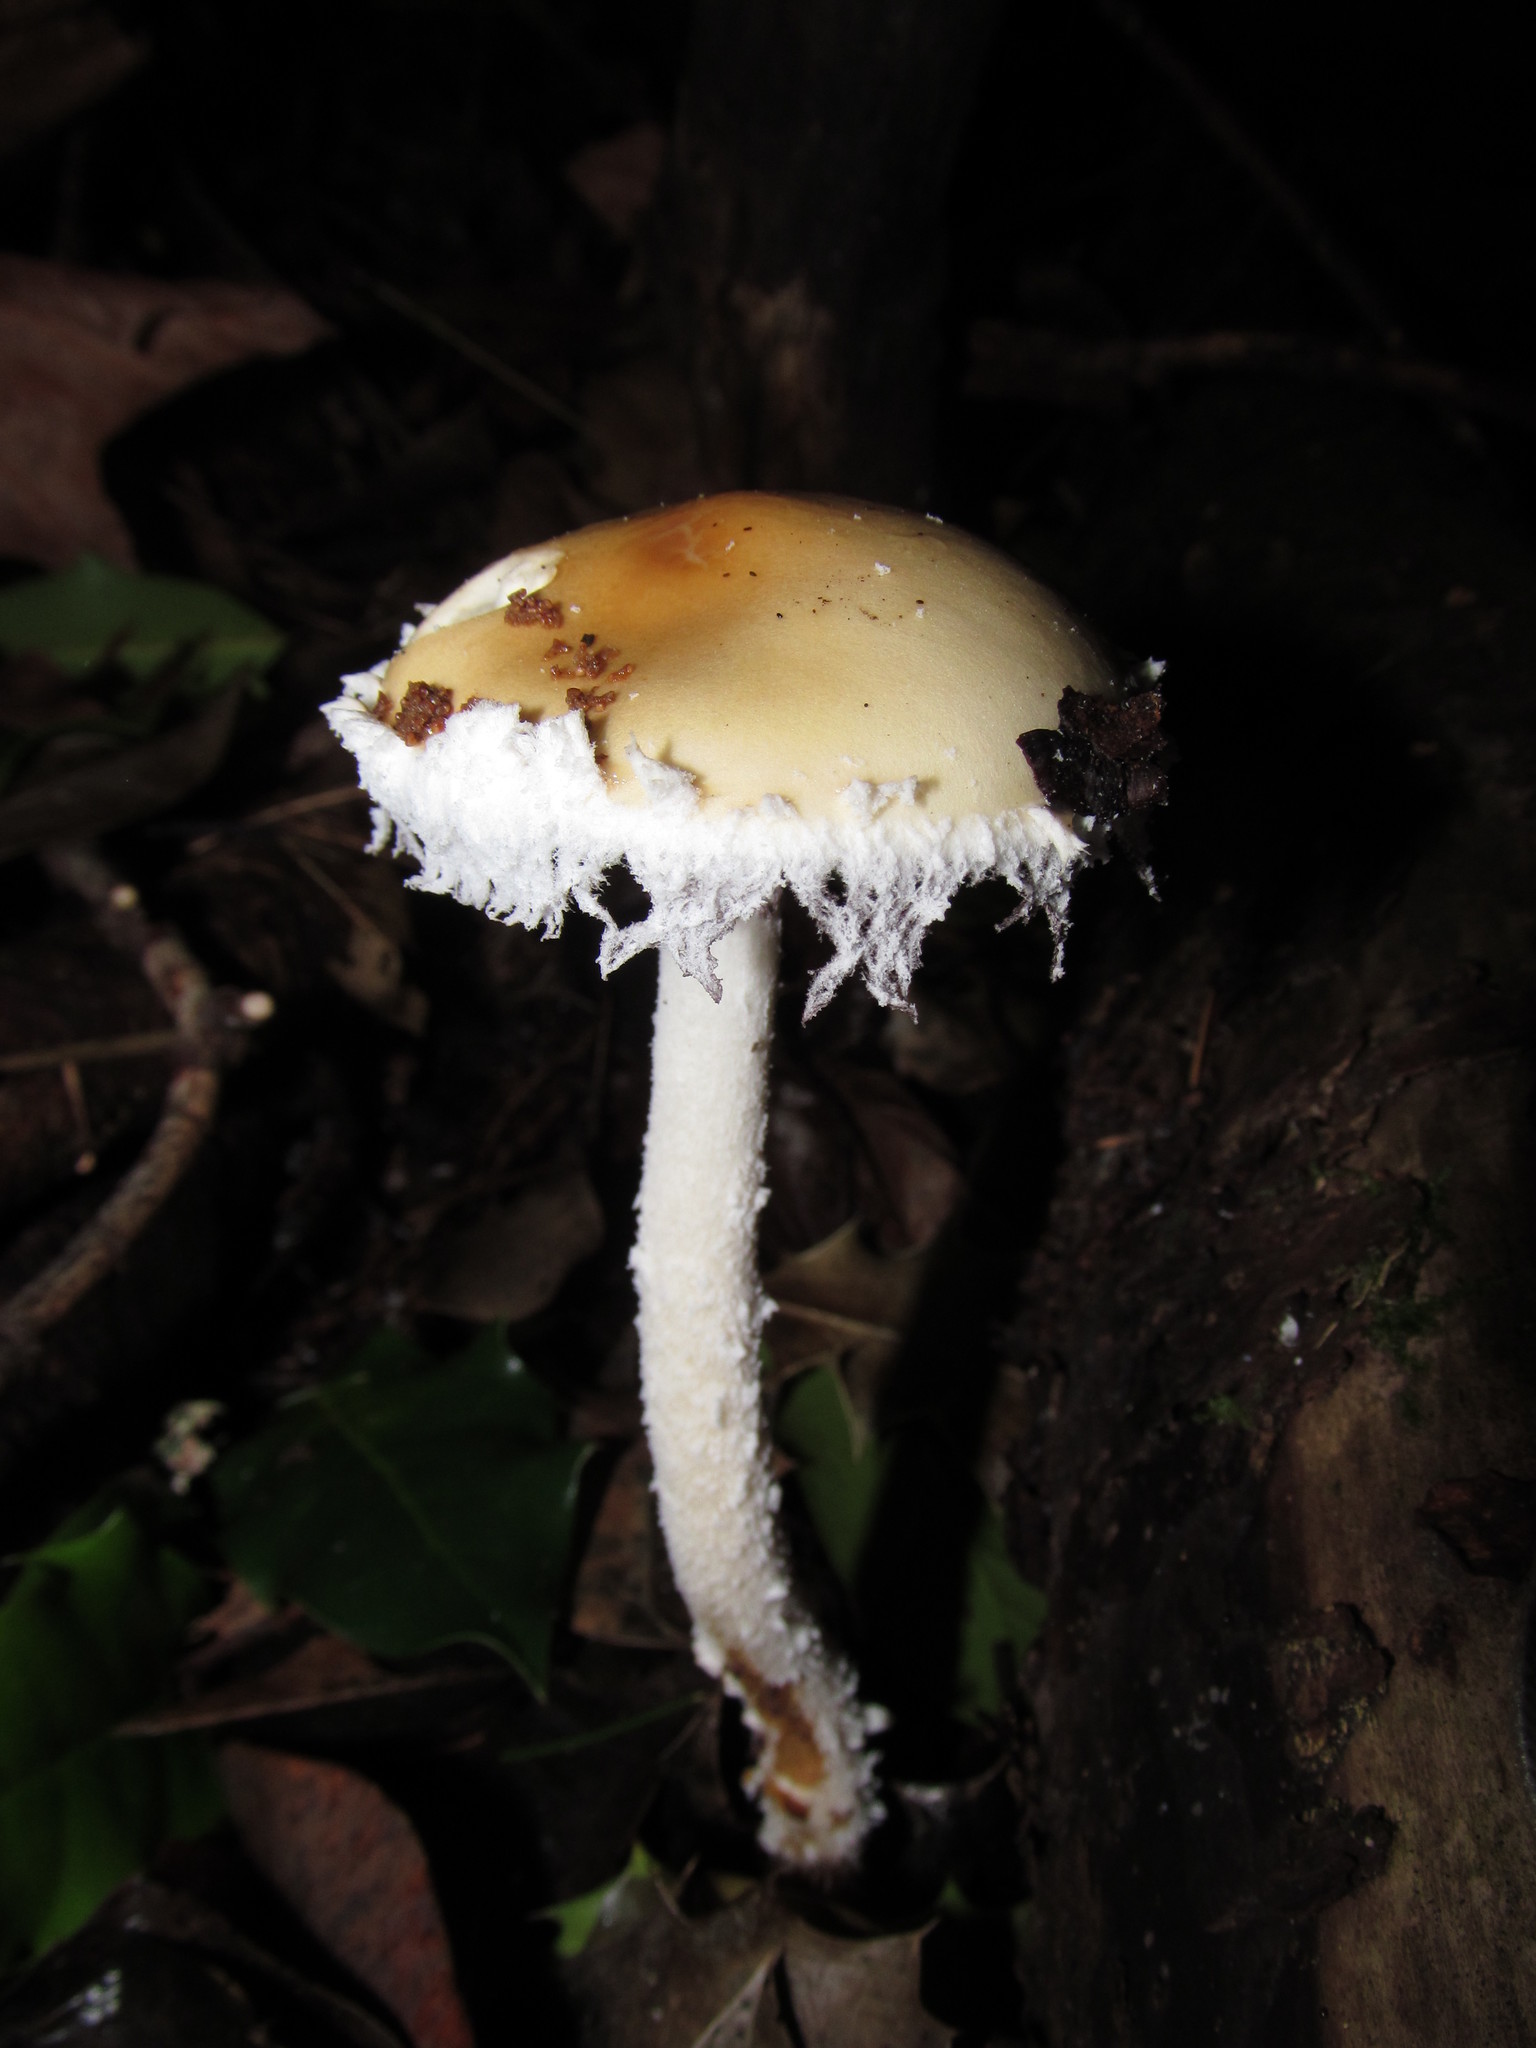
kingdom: Fungi
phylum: Basidiomycota
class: Agaricomycetes
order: Agaricales
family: Strophariaceae
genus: Stropharia
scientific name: Stropharia ambigua
